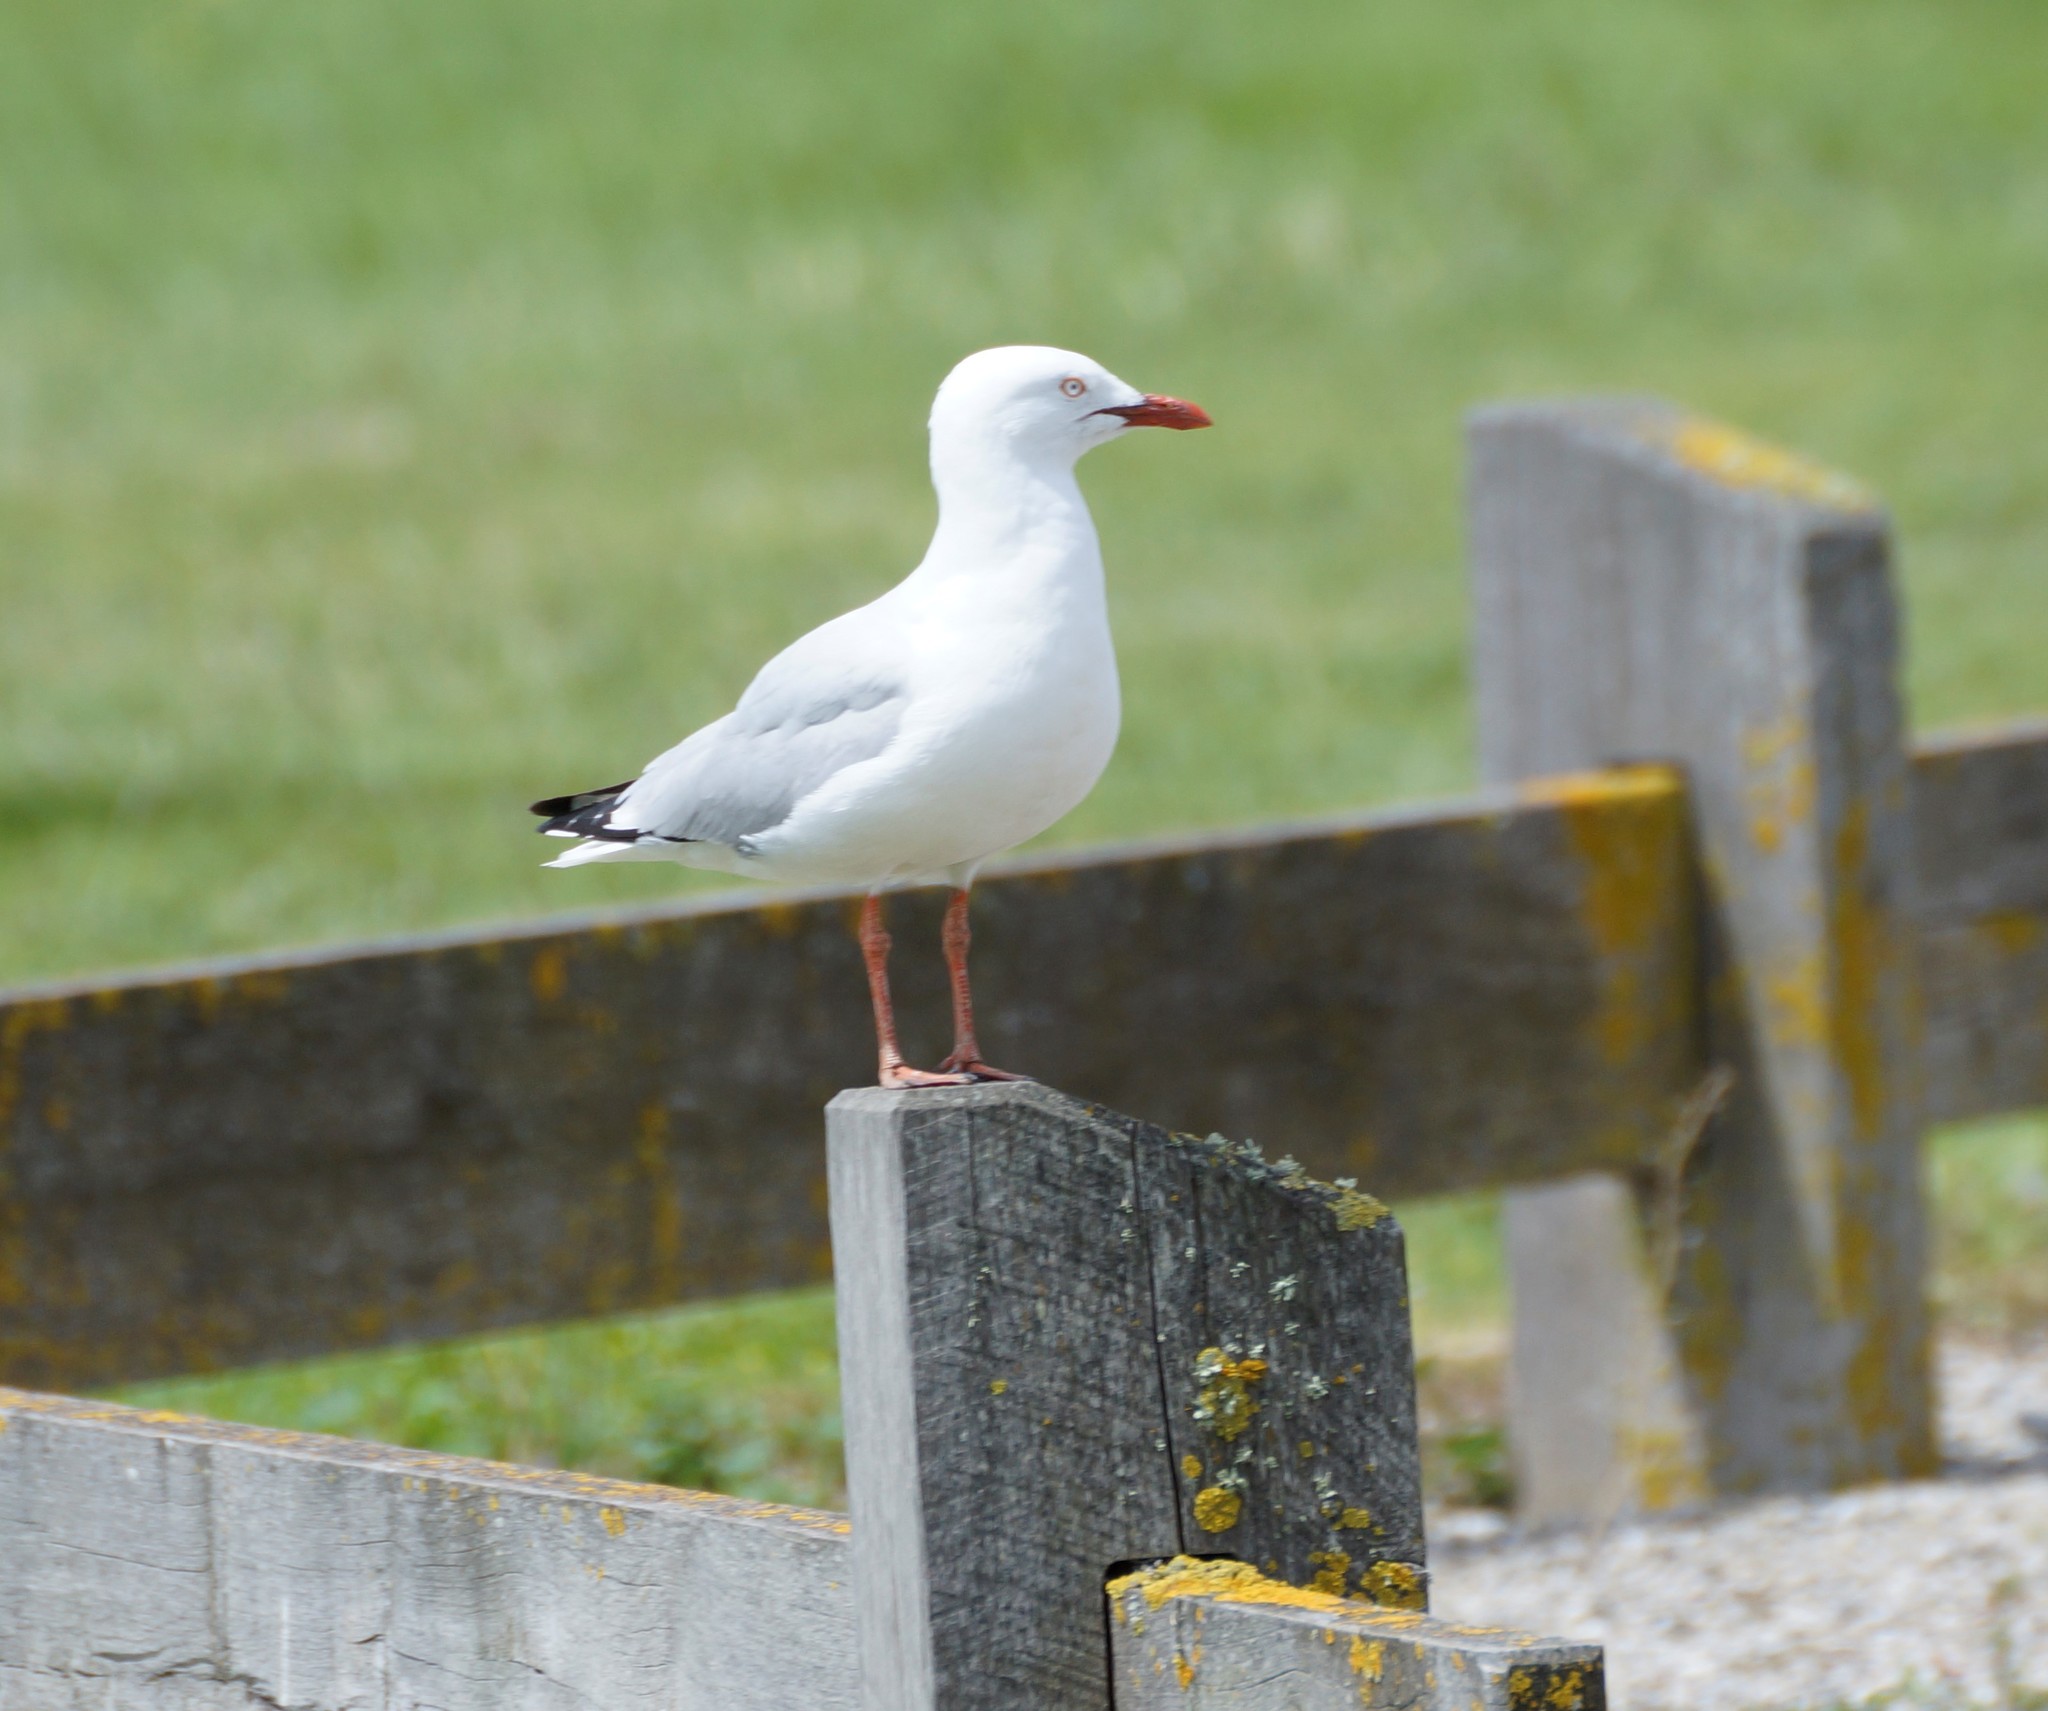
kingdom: Animalia
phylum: Chordata
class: Aves
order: Charadriiformes
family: Laridae
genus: Chroicocephalus
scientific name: Chroicocephalus novaehollandiae
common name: Silver gull
